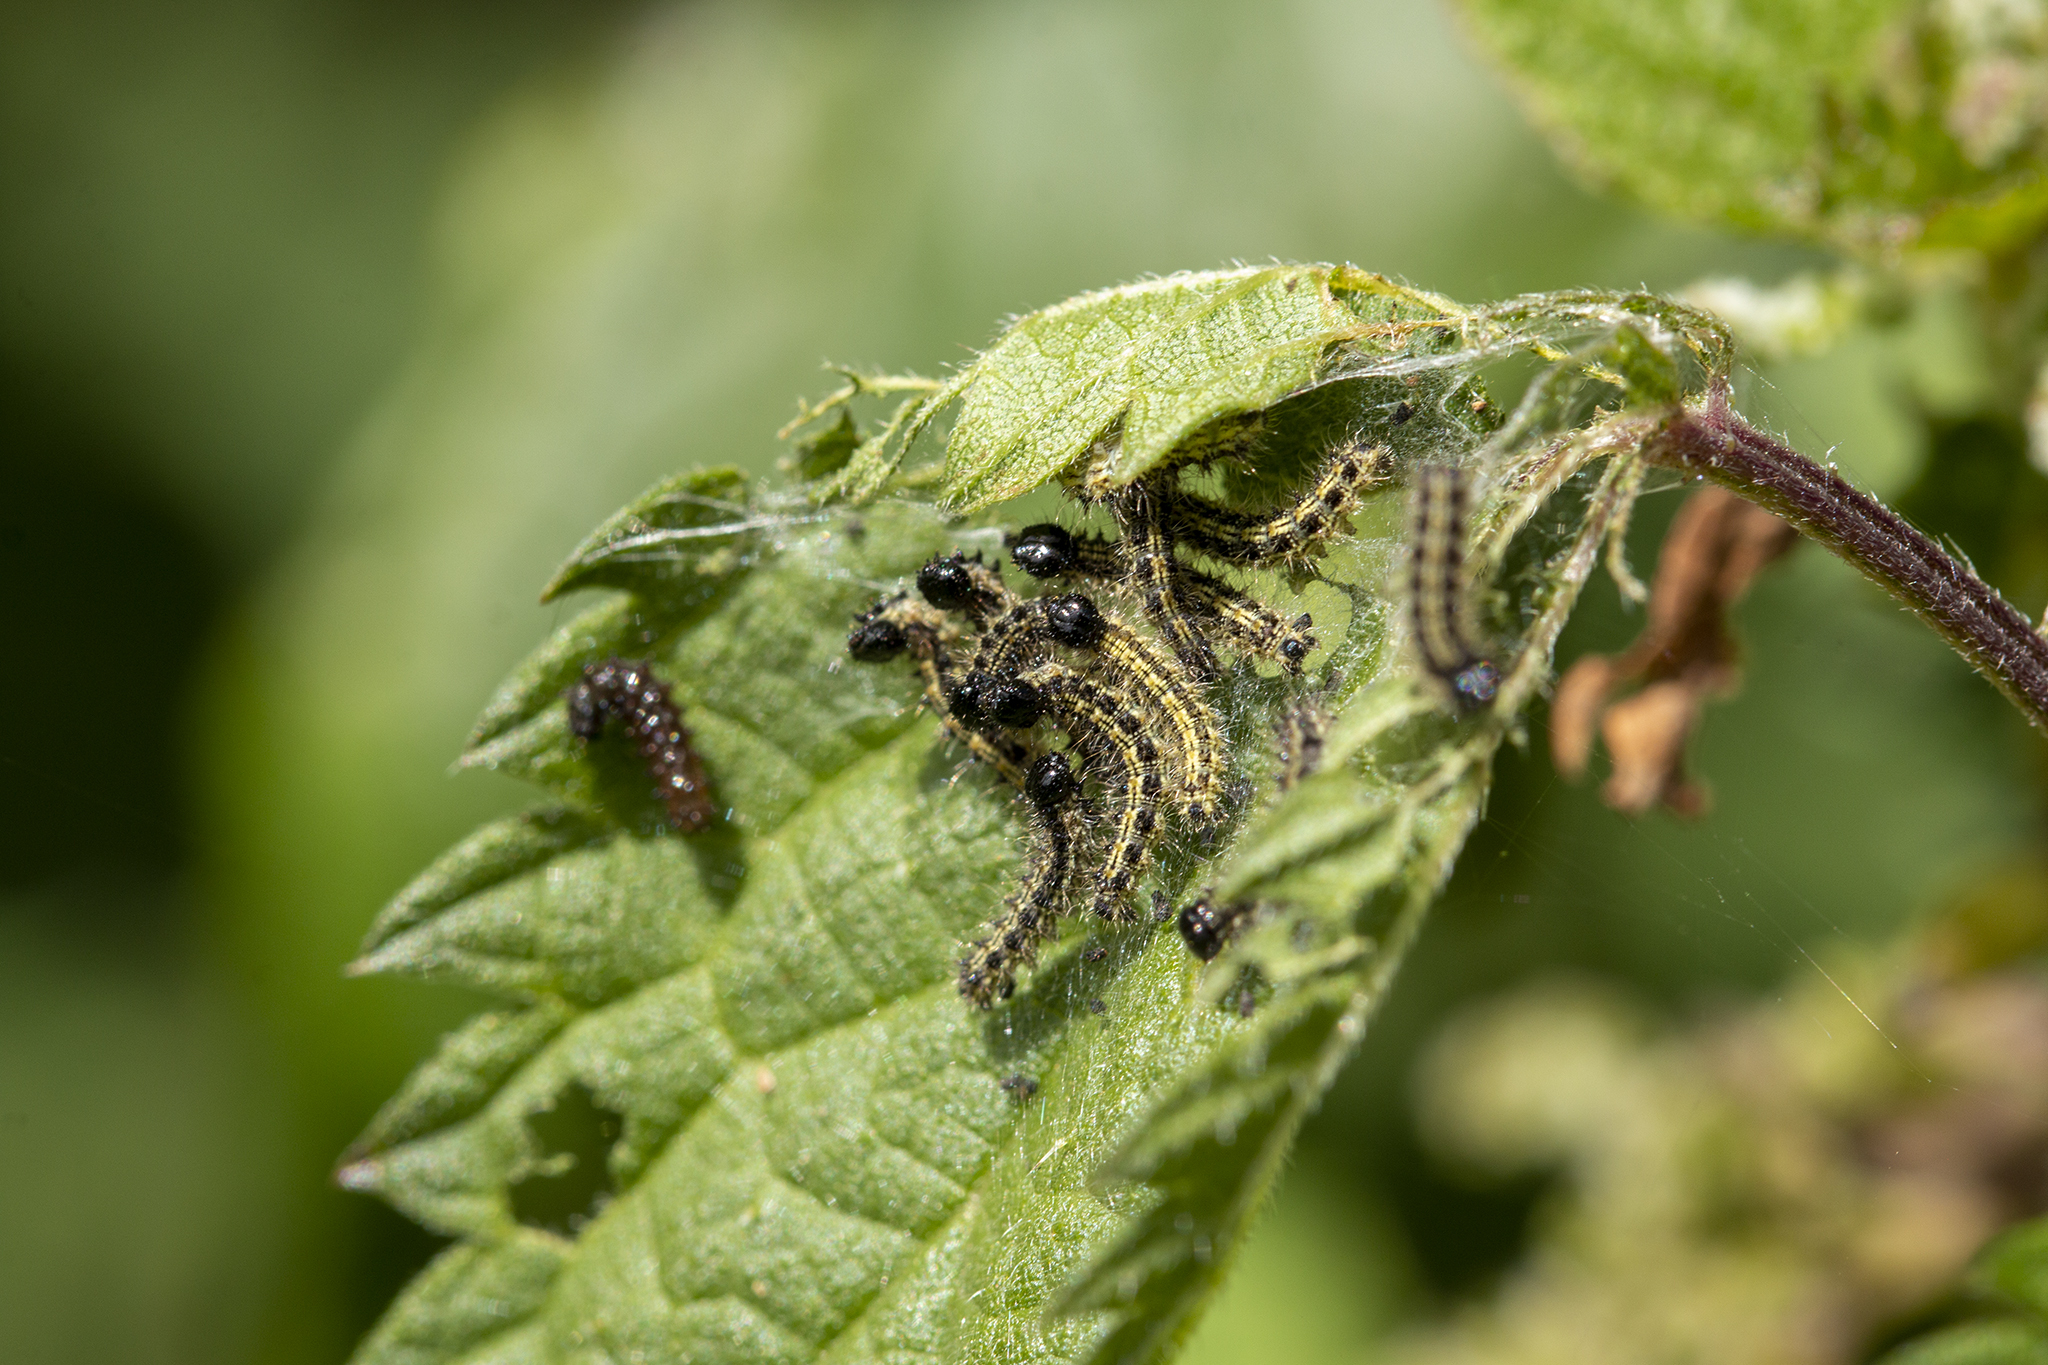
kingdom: Animalia
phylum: Arthropoda
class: Insecta
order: Lepidoptera
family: Nymphalidae
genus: Aglais
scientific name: Aglais urticae
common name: Small tortoiseshell
